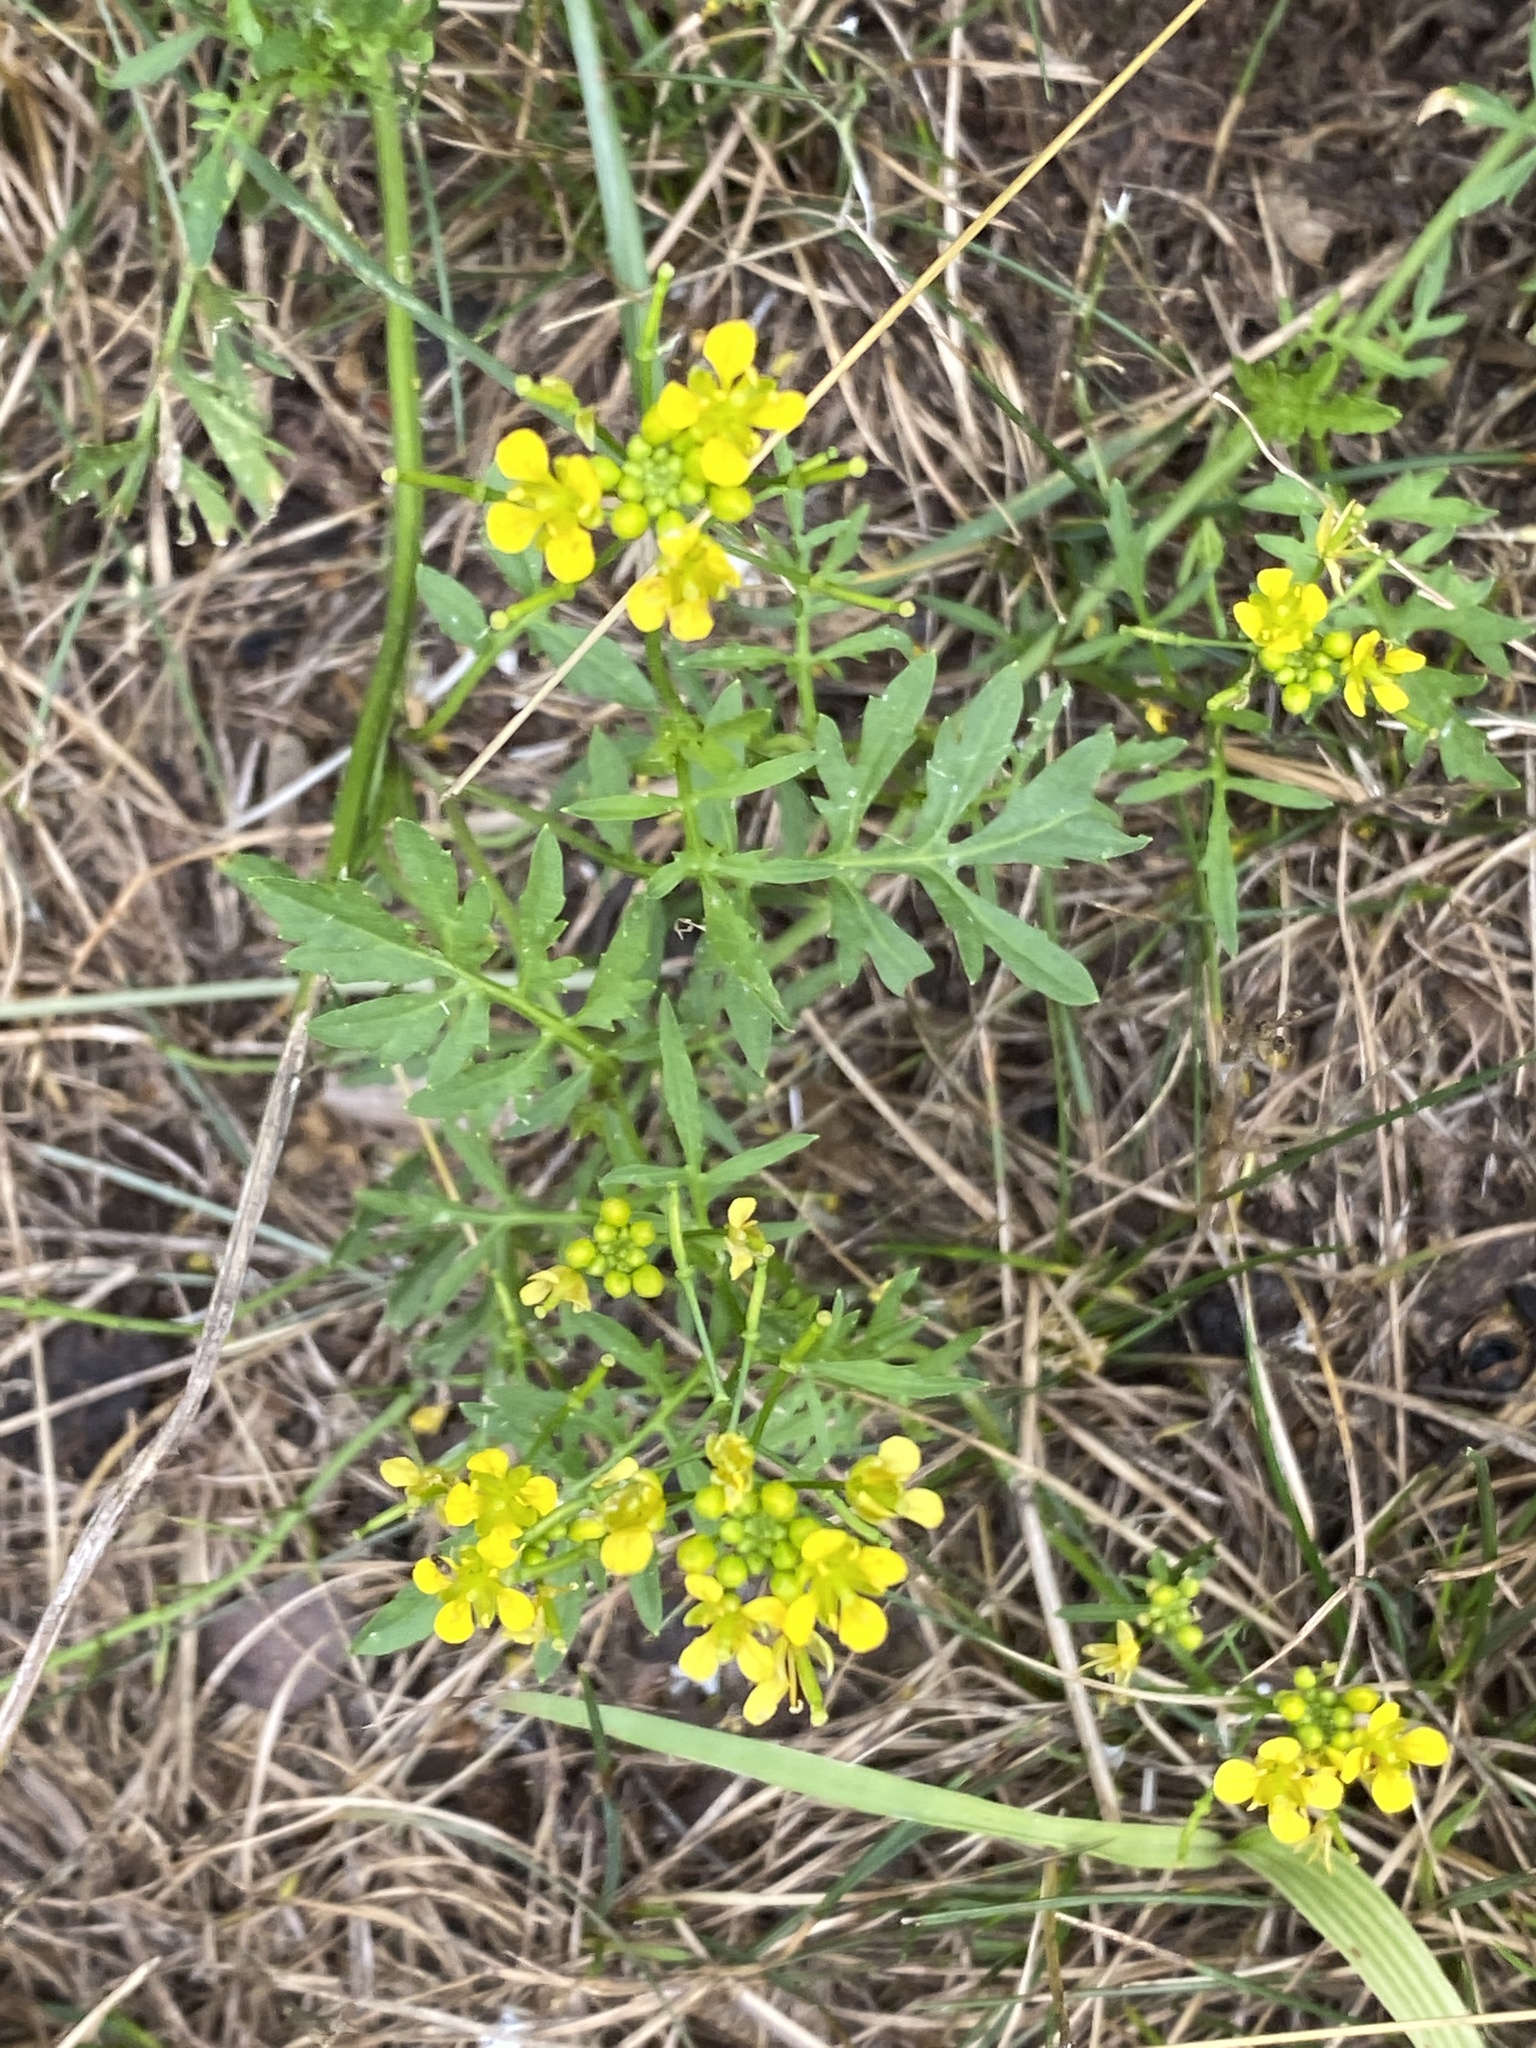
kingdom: Plantae
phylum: Tracheophyta
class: Magnoliopsida
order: Brassicales
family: Brassicaceae
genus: Rorippa
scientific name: Rorippa sylvestris
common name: Creeping yellowcress
